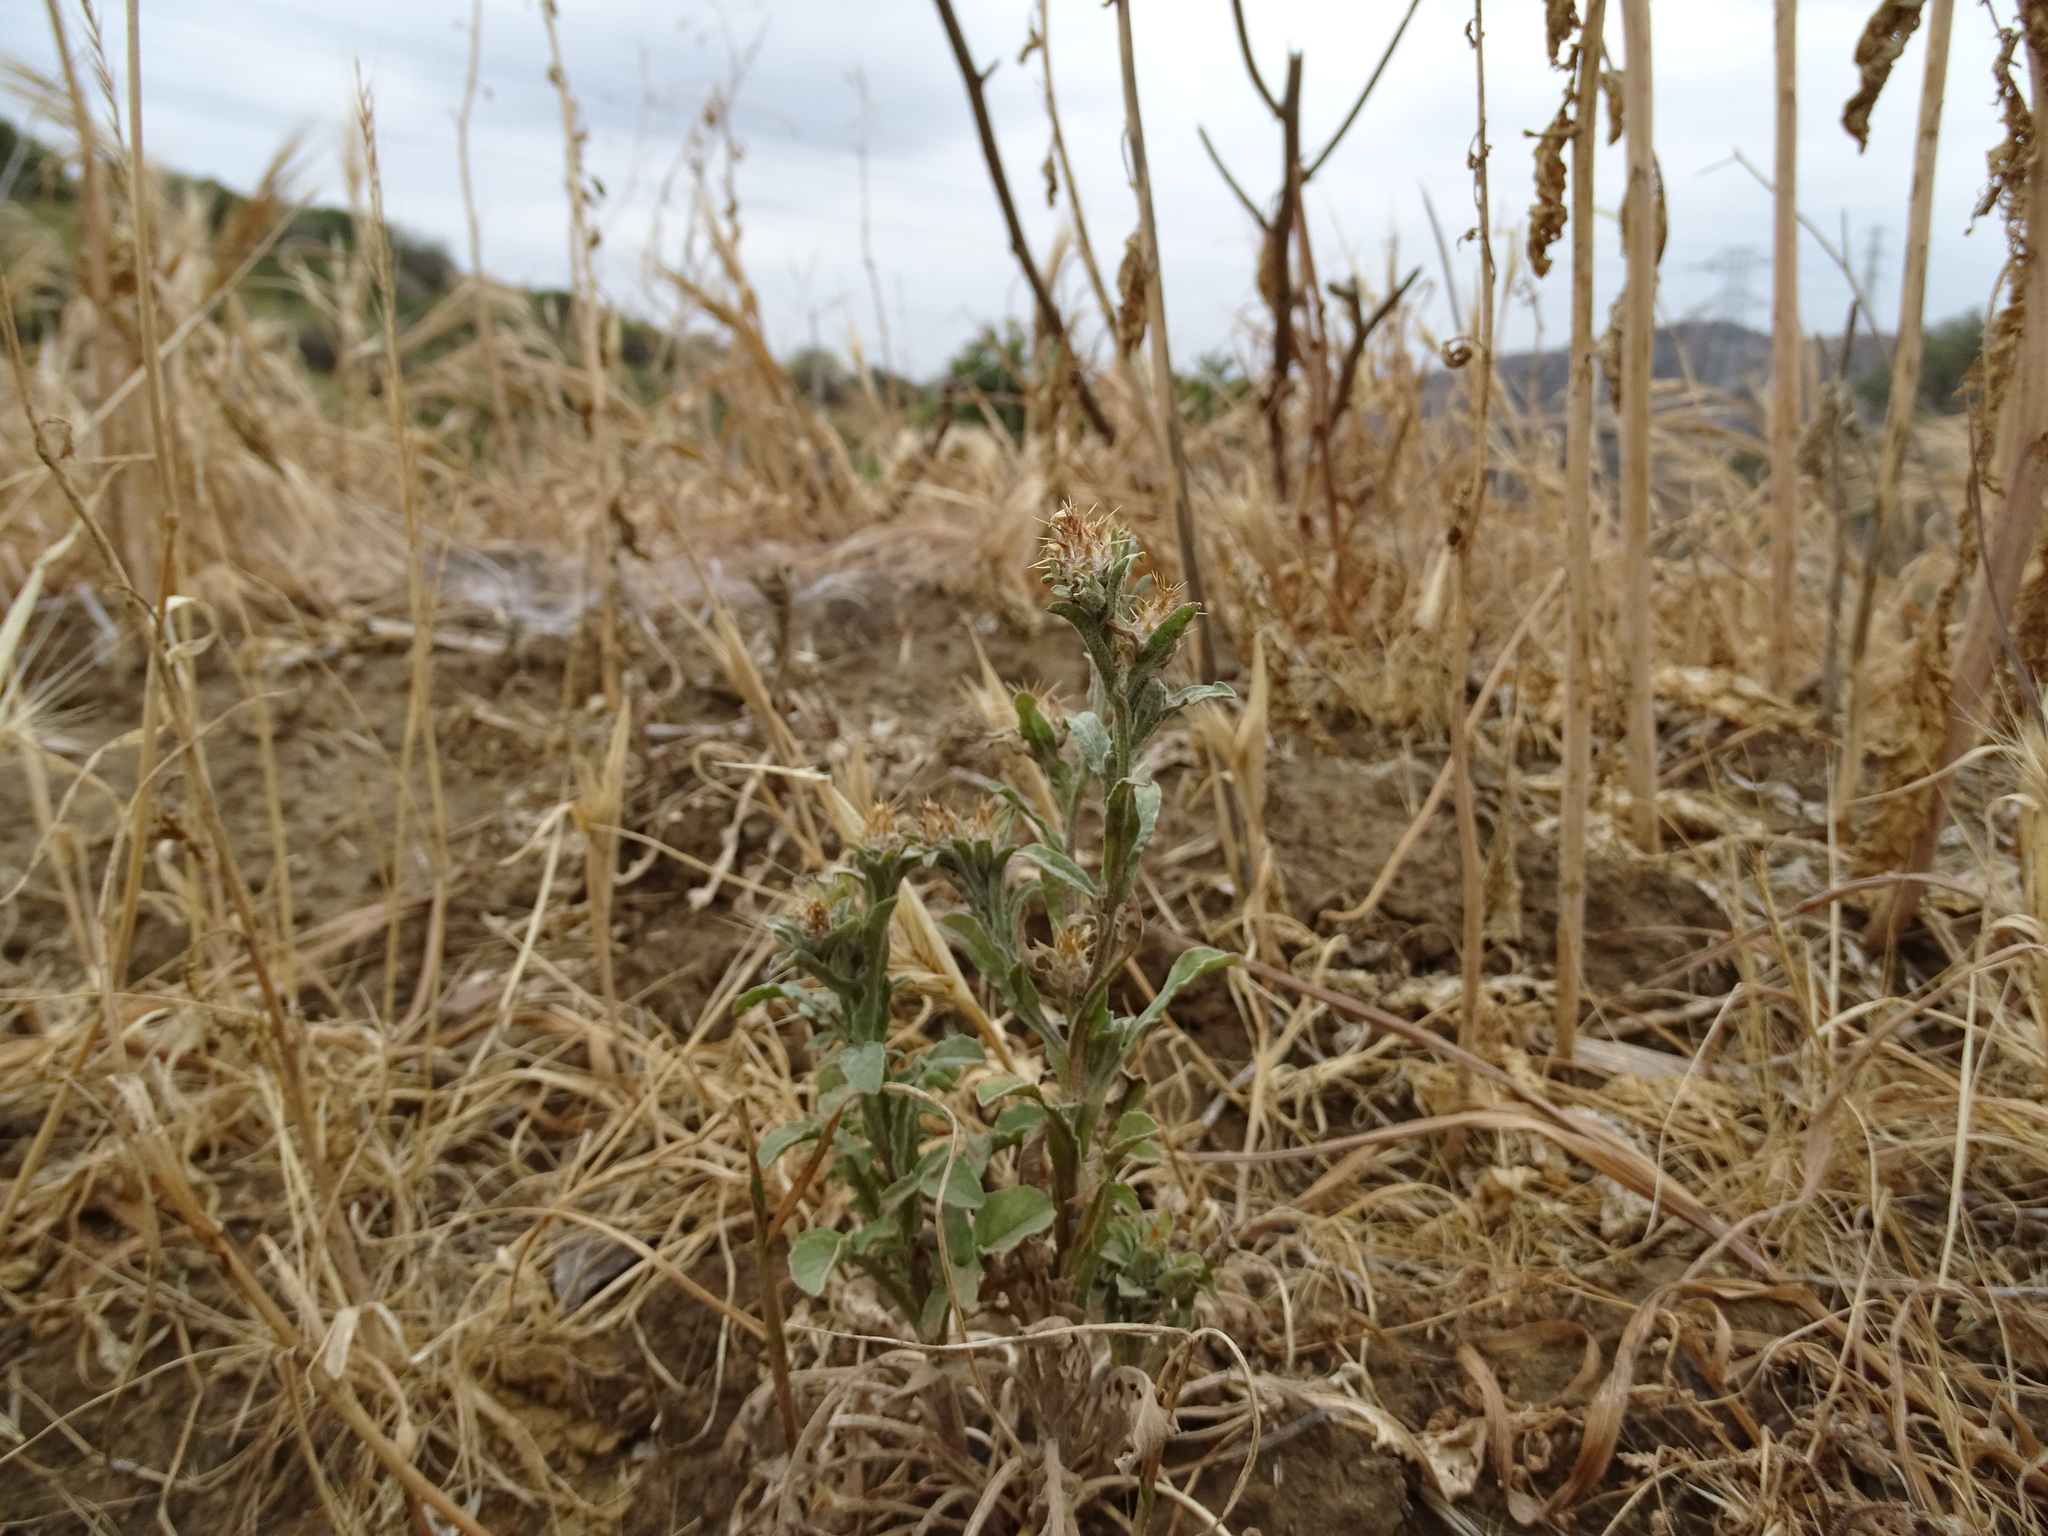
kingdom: Plantae
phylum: Tracheophyta
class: Magnoliopsida
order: Asterales
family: Asteraceae
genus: Centaurea
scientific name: Centaurea melitensis
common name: Maltese star-thistle
